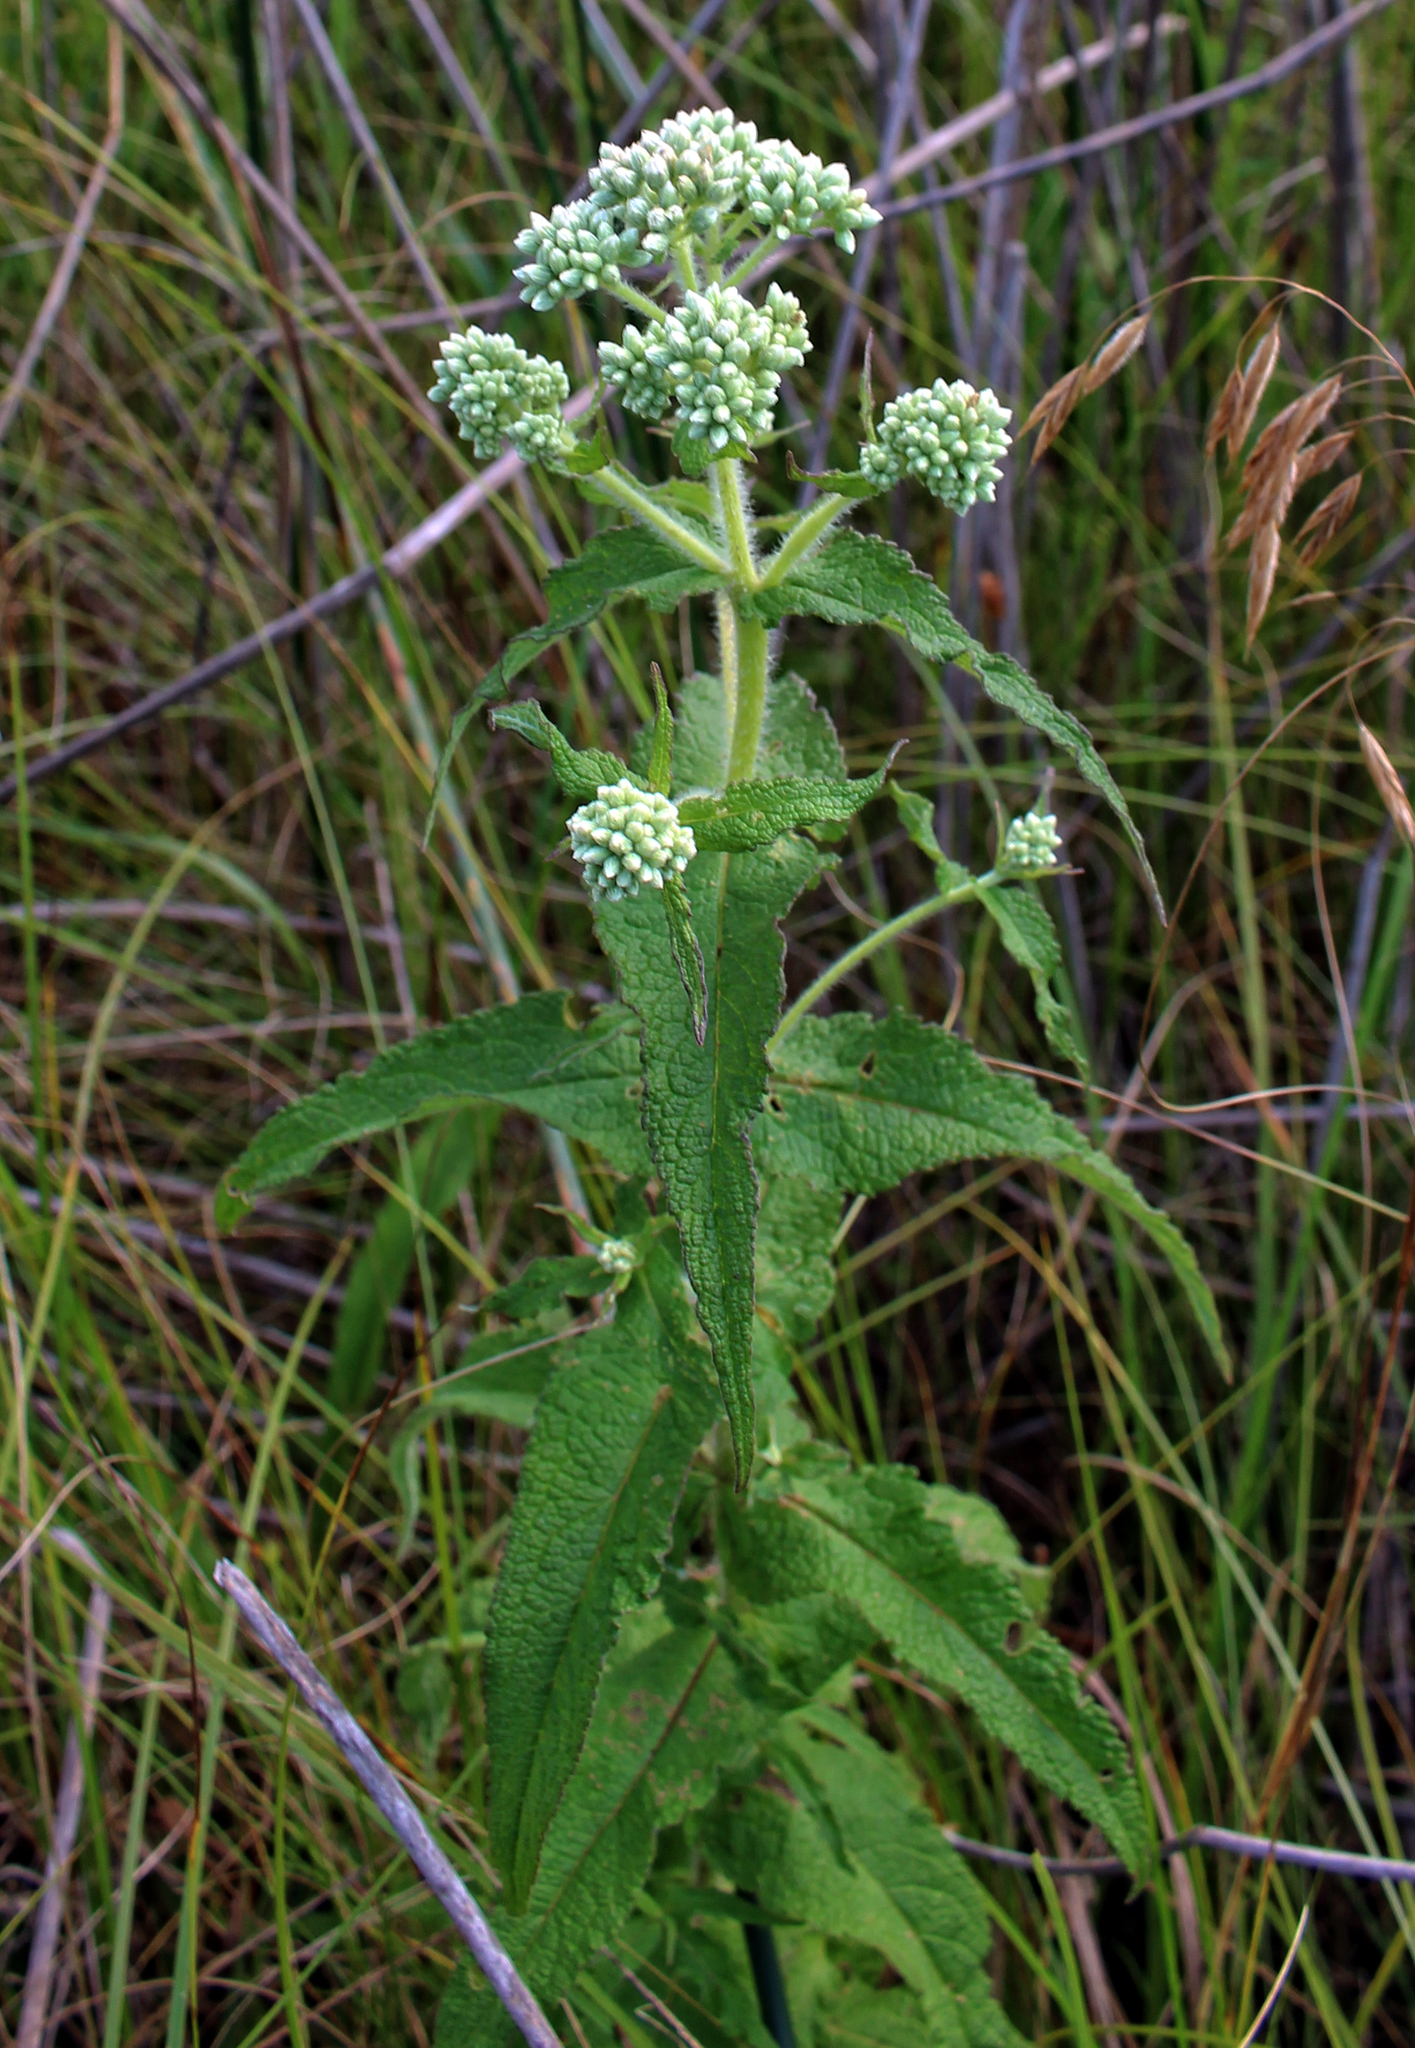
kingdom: Plantae
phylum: Tracheophyta
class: Magnoliopsida
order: Asterales
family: Asteraceae
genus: Eupatorium
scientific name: Eupatorium perfoliatum
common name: Boneset
